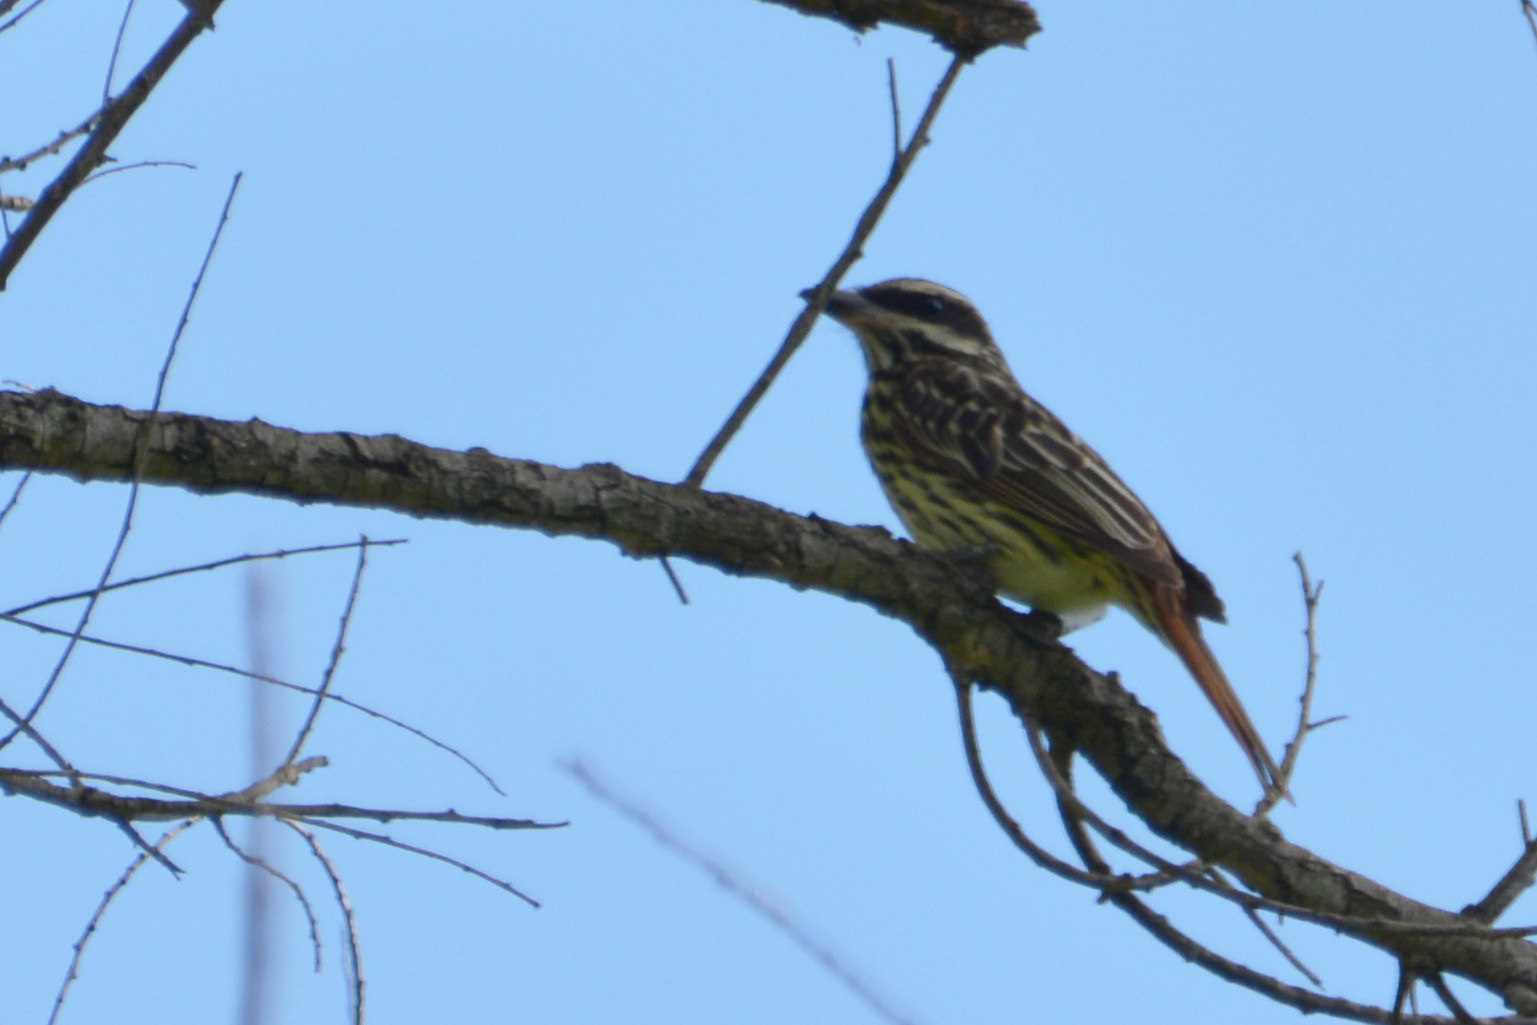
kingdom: Animalia
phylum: Chordata
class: Aves
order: Passeriformes
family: Tyrannidae
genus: Myiodynastes
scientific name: Myiodynastes maculatus
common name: Streaked flycatcher
